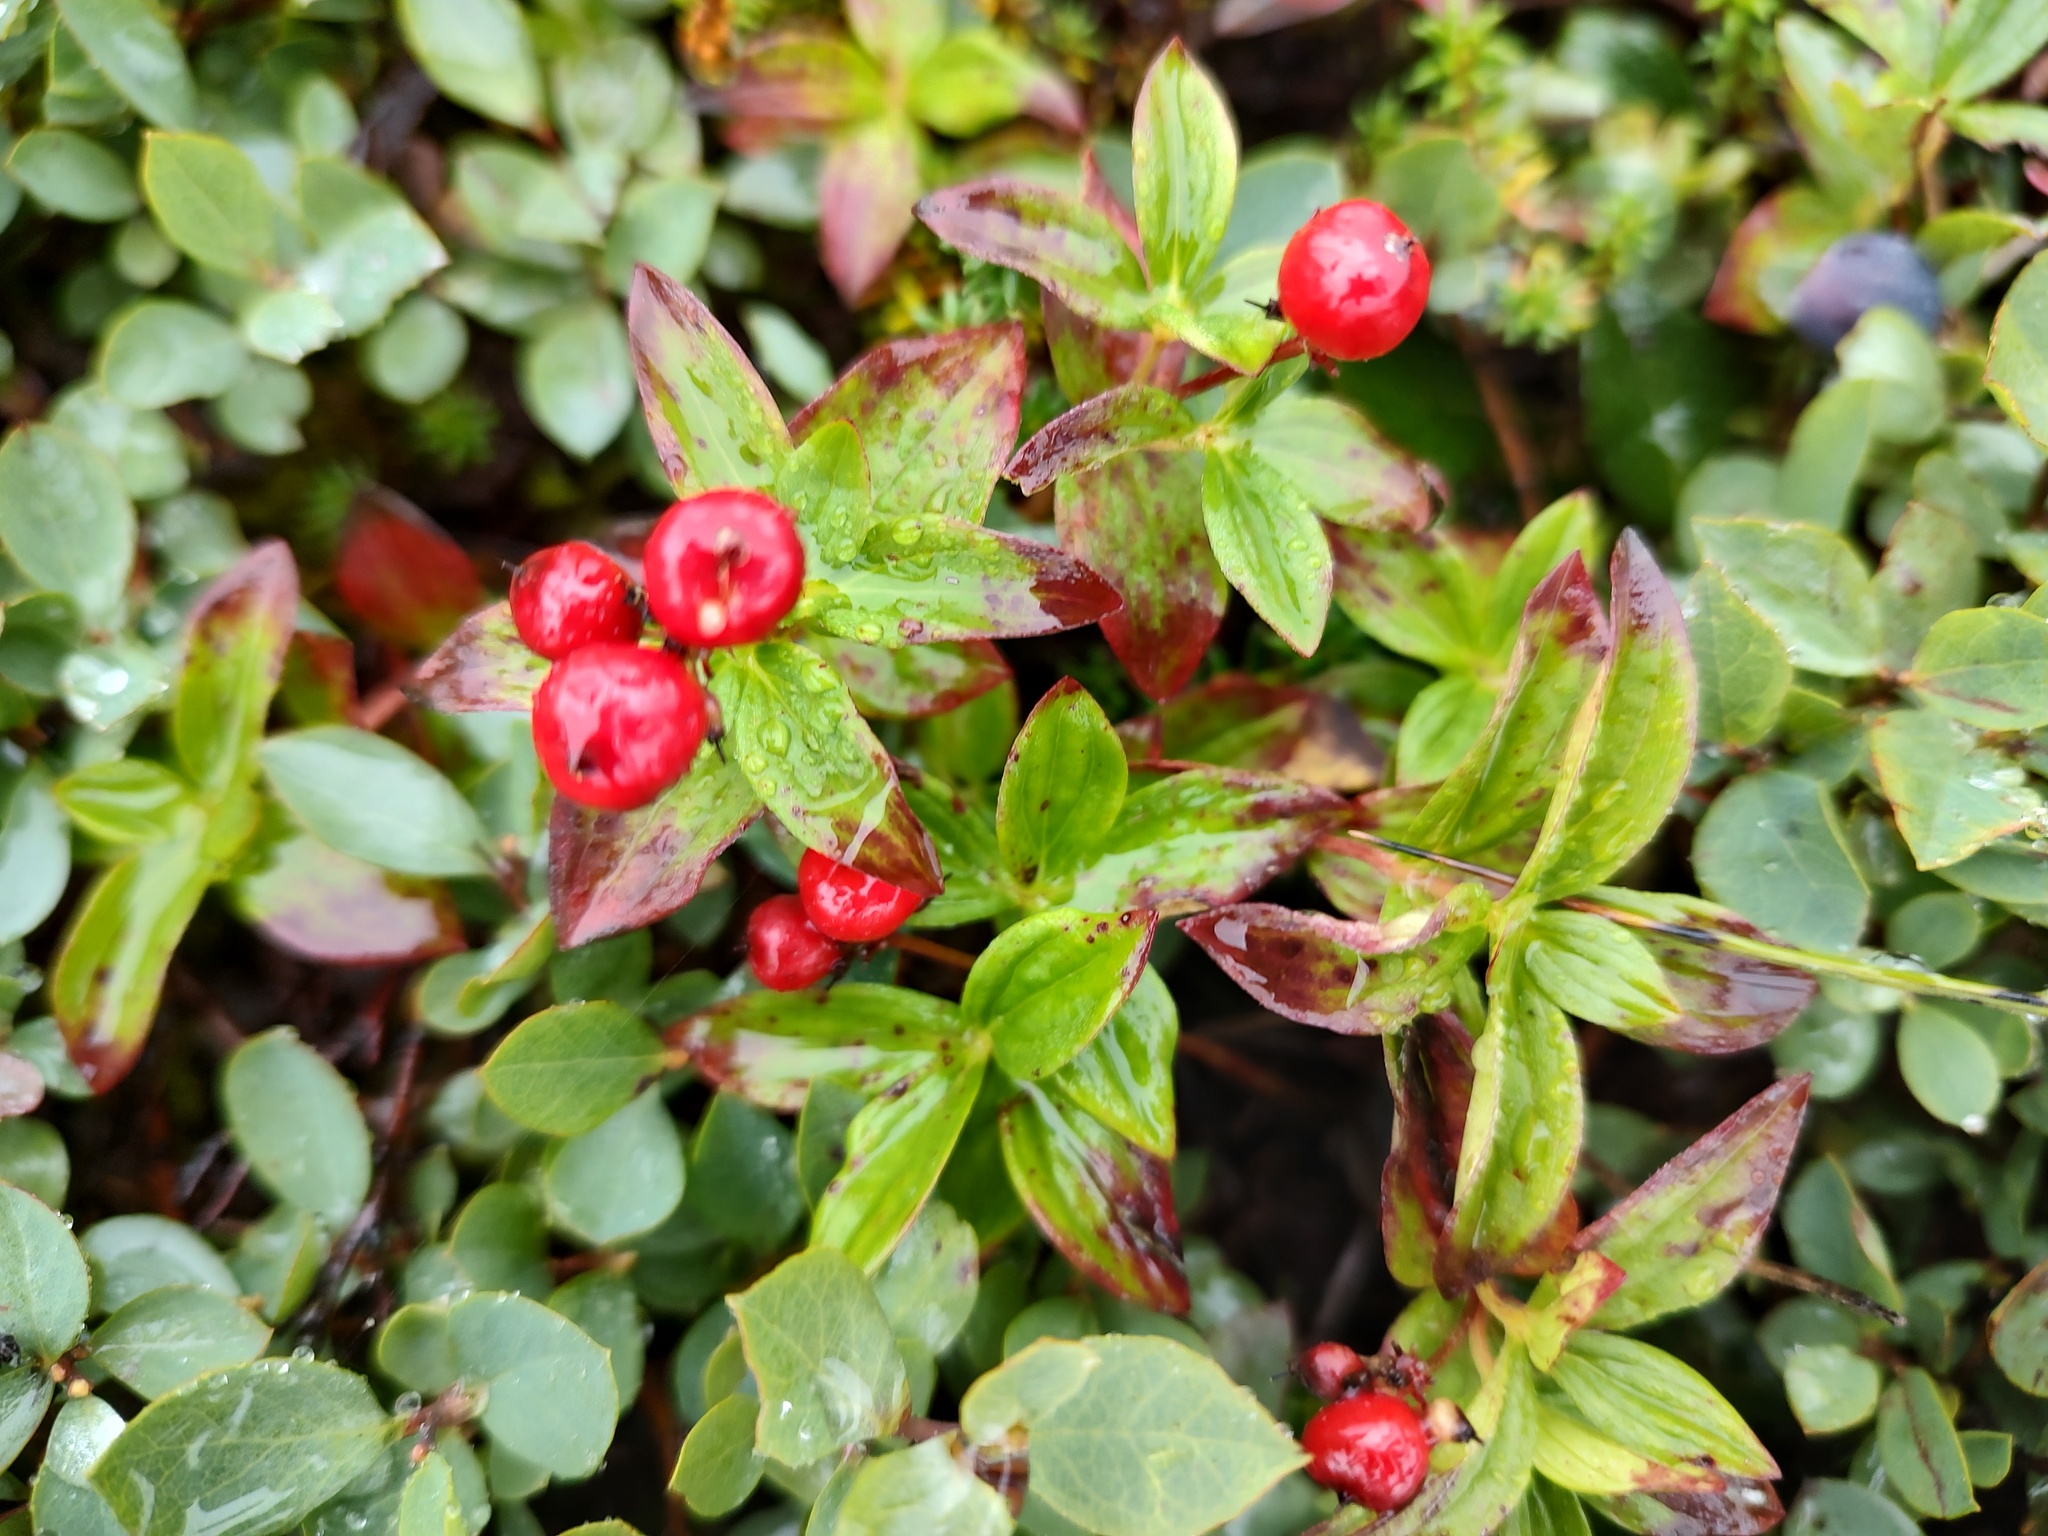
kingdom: Plantae
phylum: Tracheophyta
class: Magnoliopsida
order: Cornales
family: Cornaceae
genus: Cornus
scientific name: Cornus unalaschkensis
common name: Alaska bunchberry
